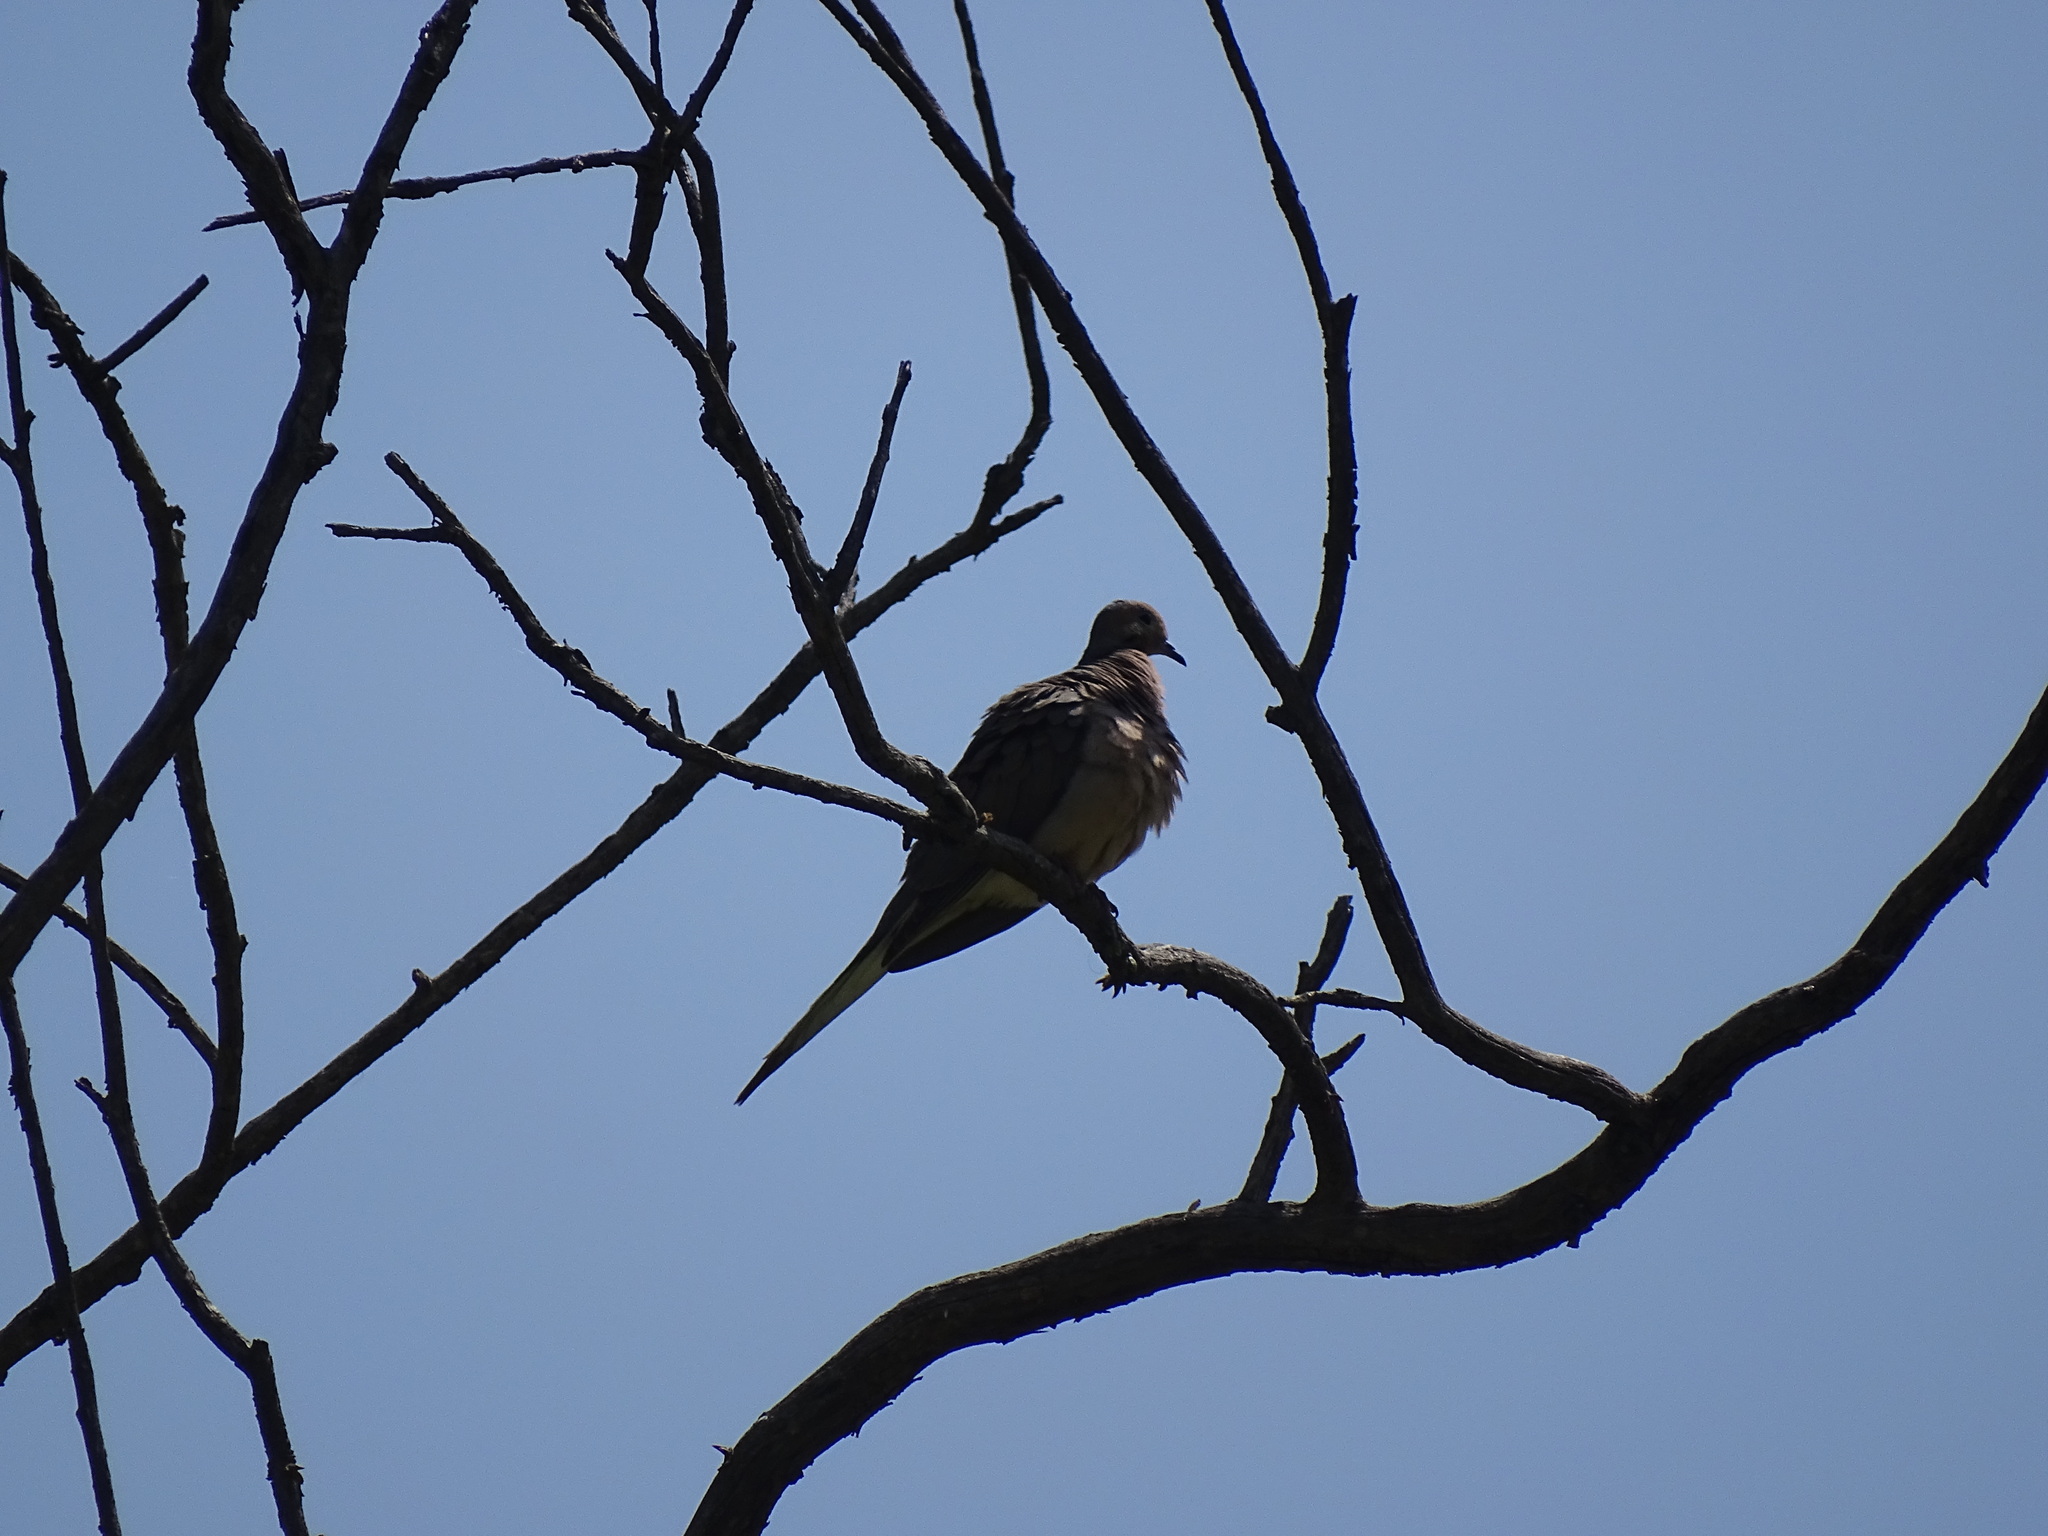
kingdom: Animalia
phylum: Chordata
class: Aves
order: Columbiformes
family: Columbidae
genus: Zenaida
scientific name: Zenaida macroura
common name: Mourning dove
